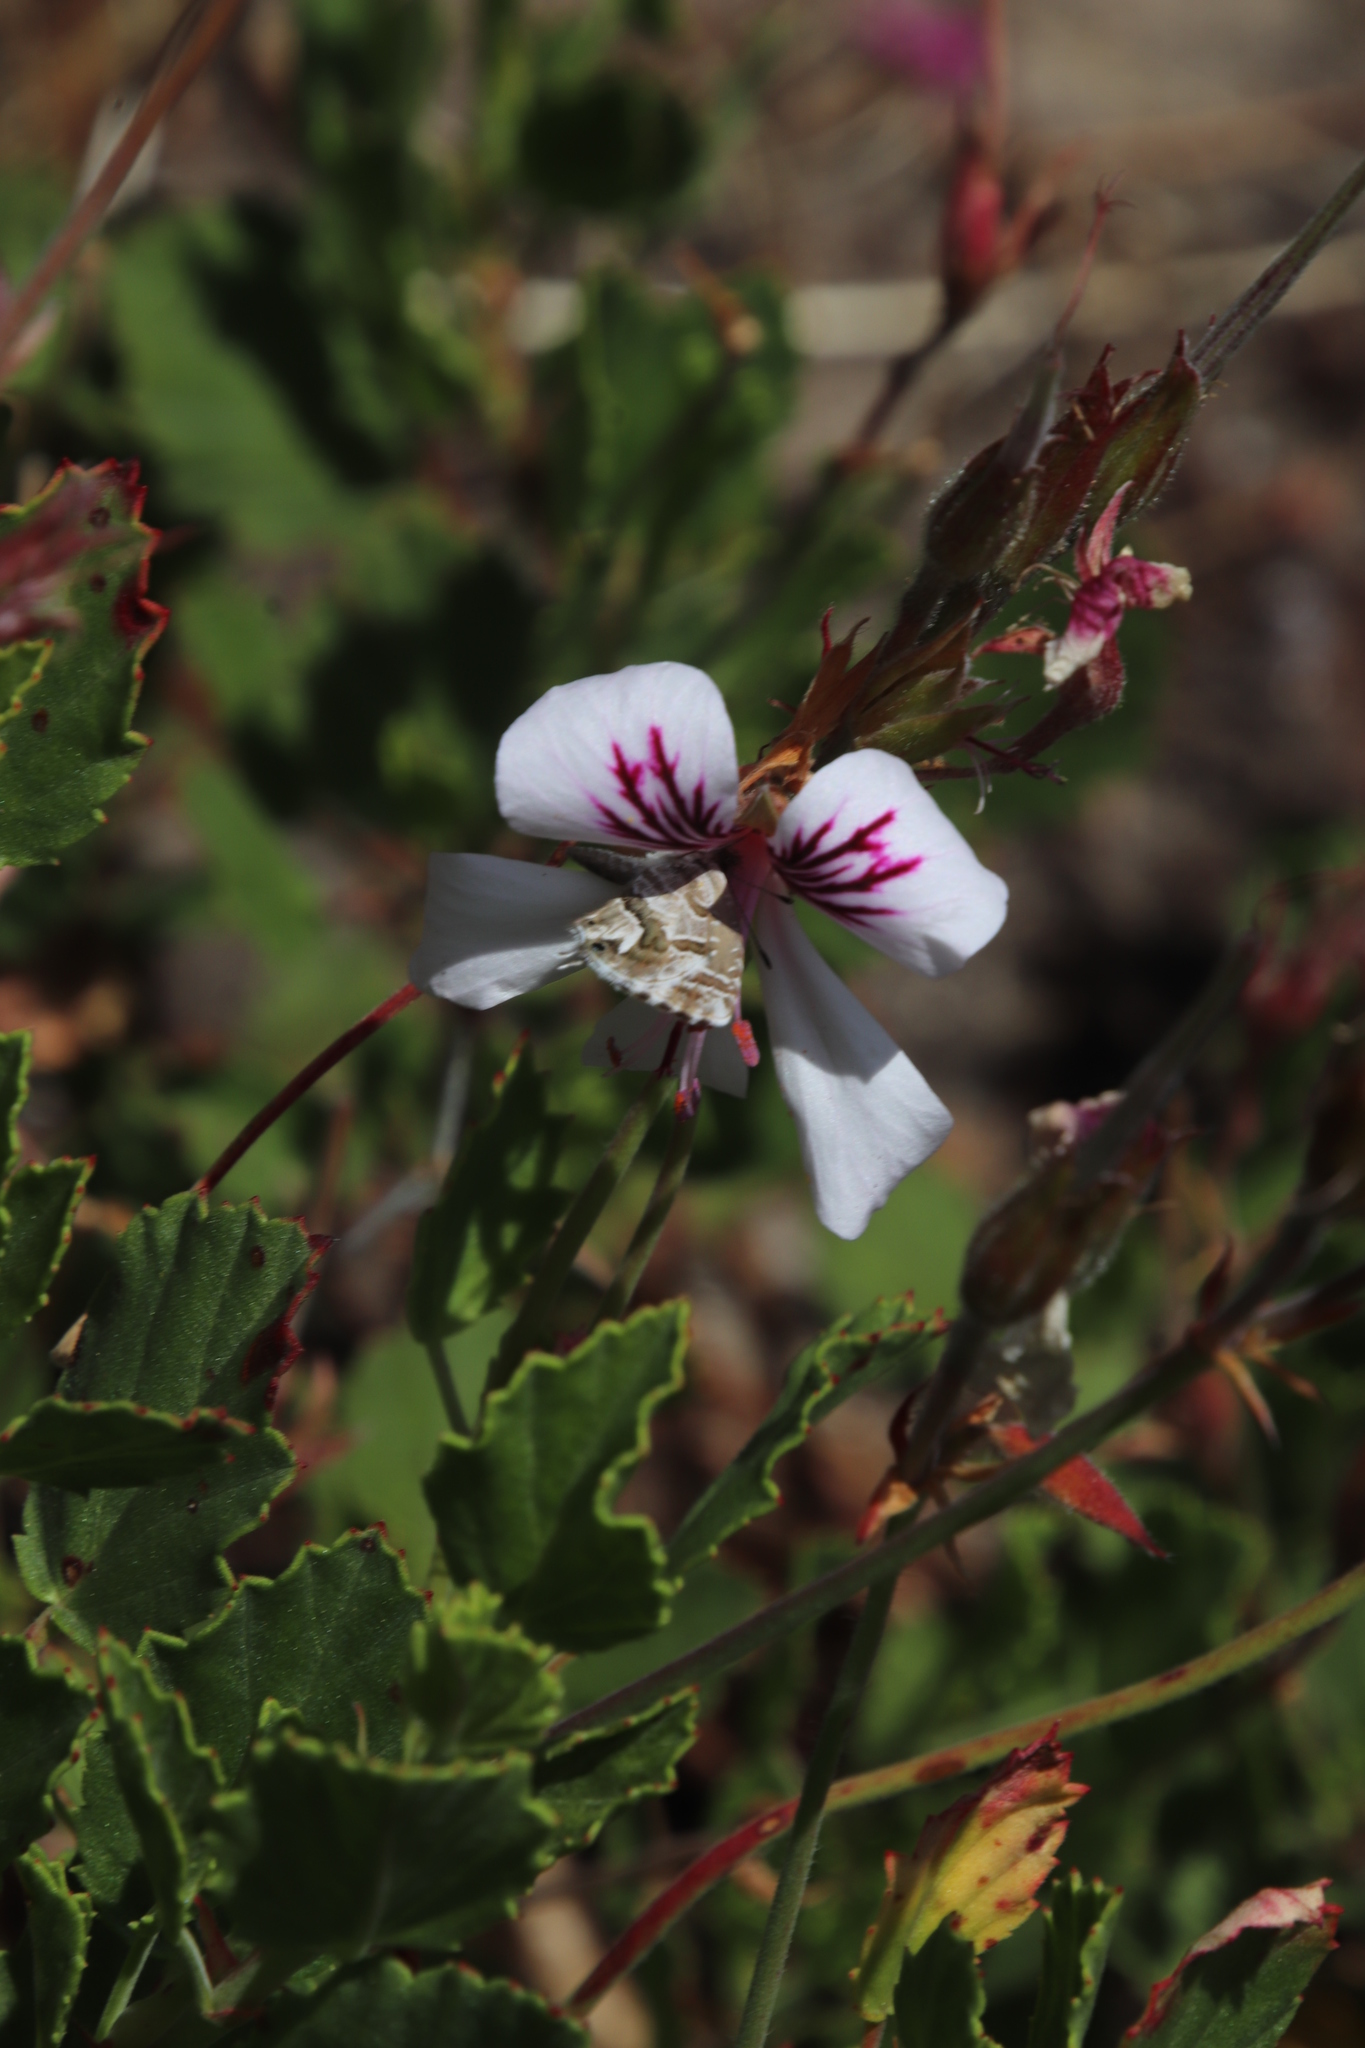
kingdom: Plantae
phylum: Tracheophyta
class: Magnoliopsida
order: Geraniales
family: Geraniaceae
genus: Pelargonium
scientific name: Pelargonium betulinum
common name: Birch-leaf pelargonium
